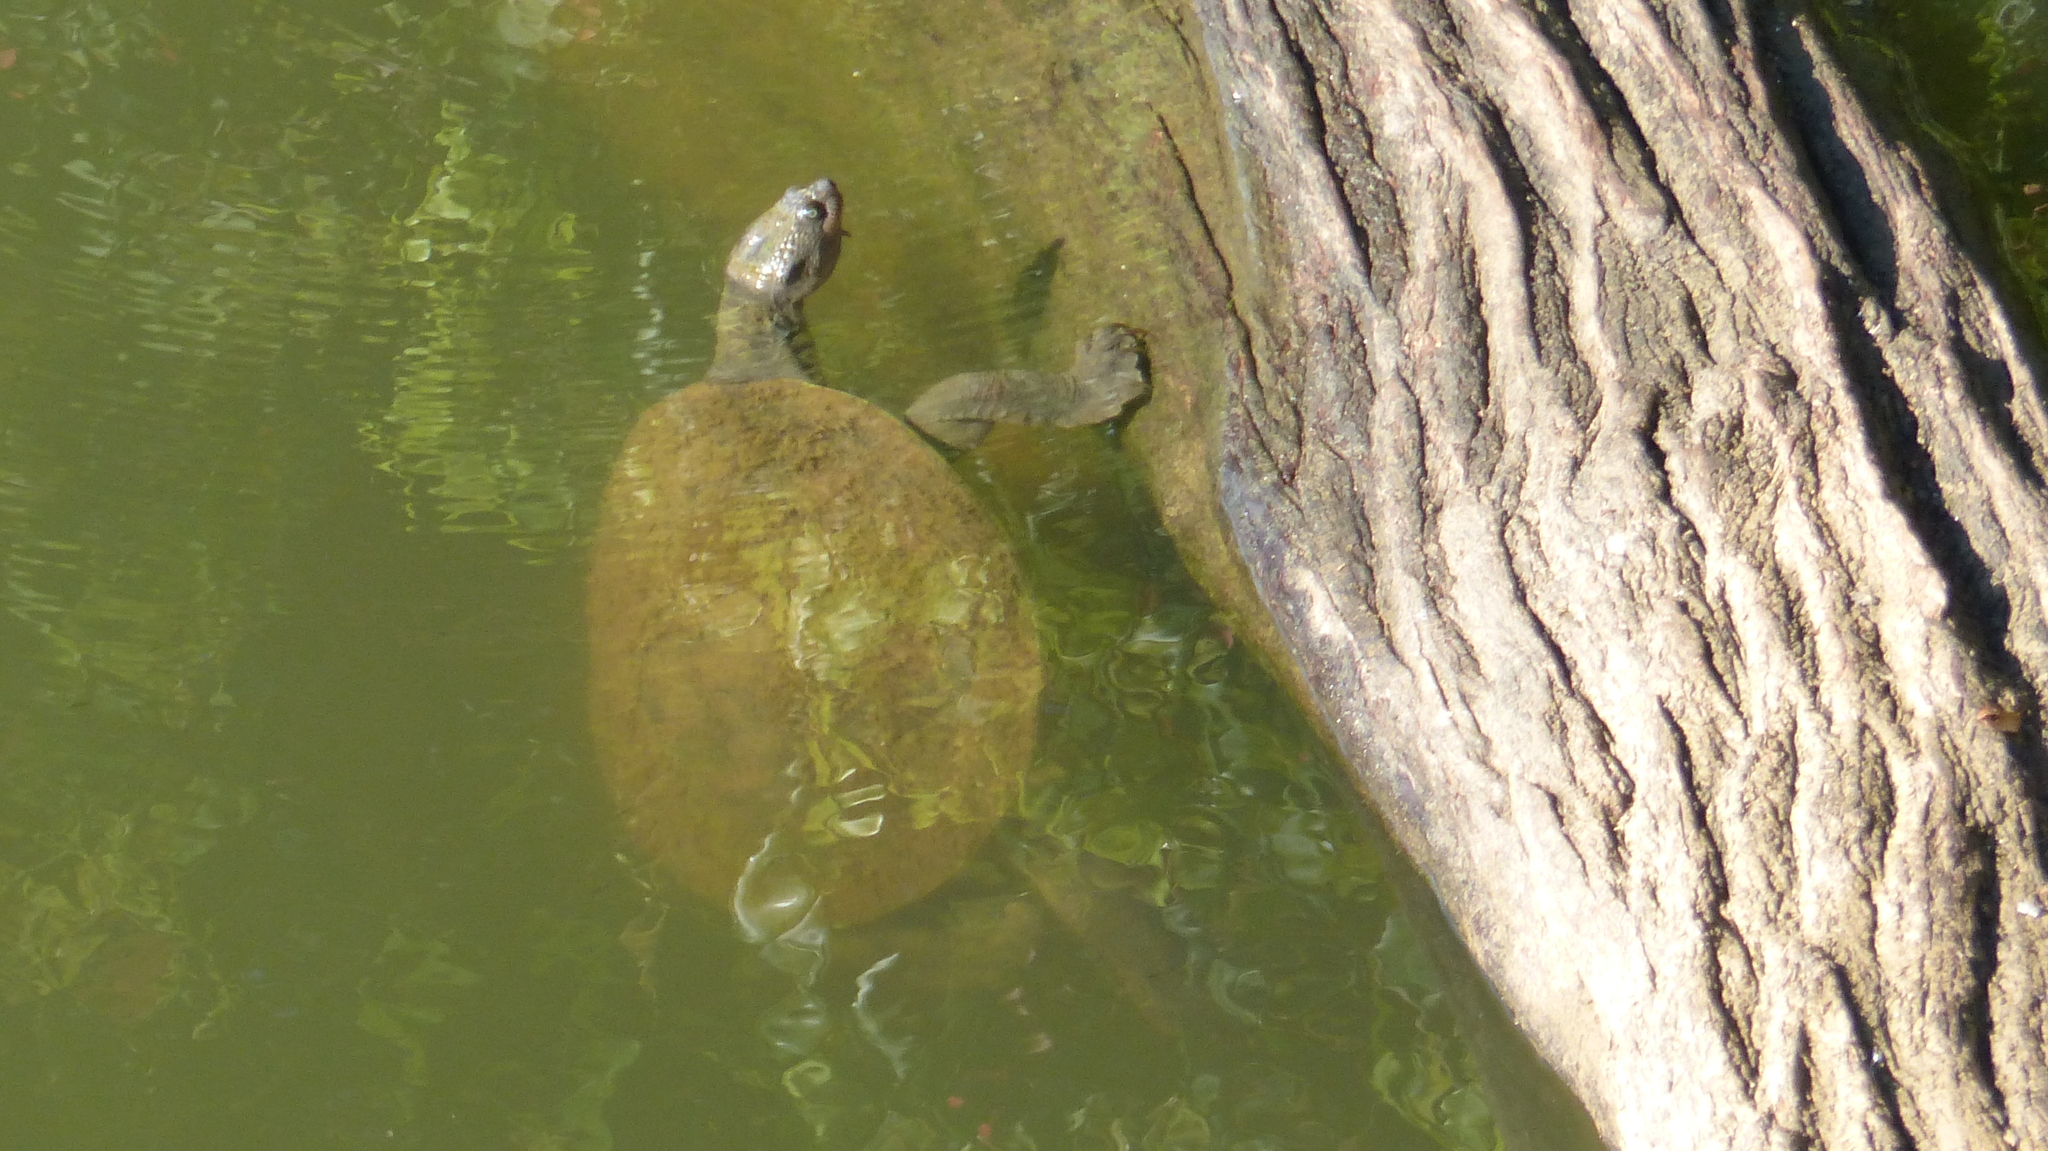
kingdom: Animalia
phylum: Chordata
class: Testudines
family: Chelidae
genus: Elusor
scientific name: Elusor macrurus
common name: Mary river turtle
